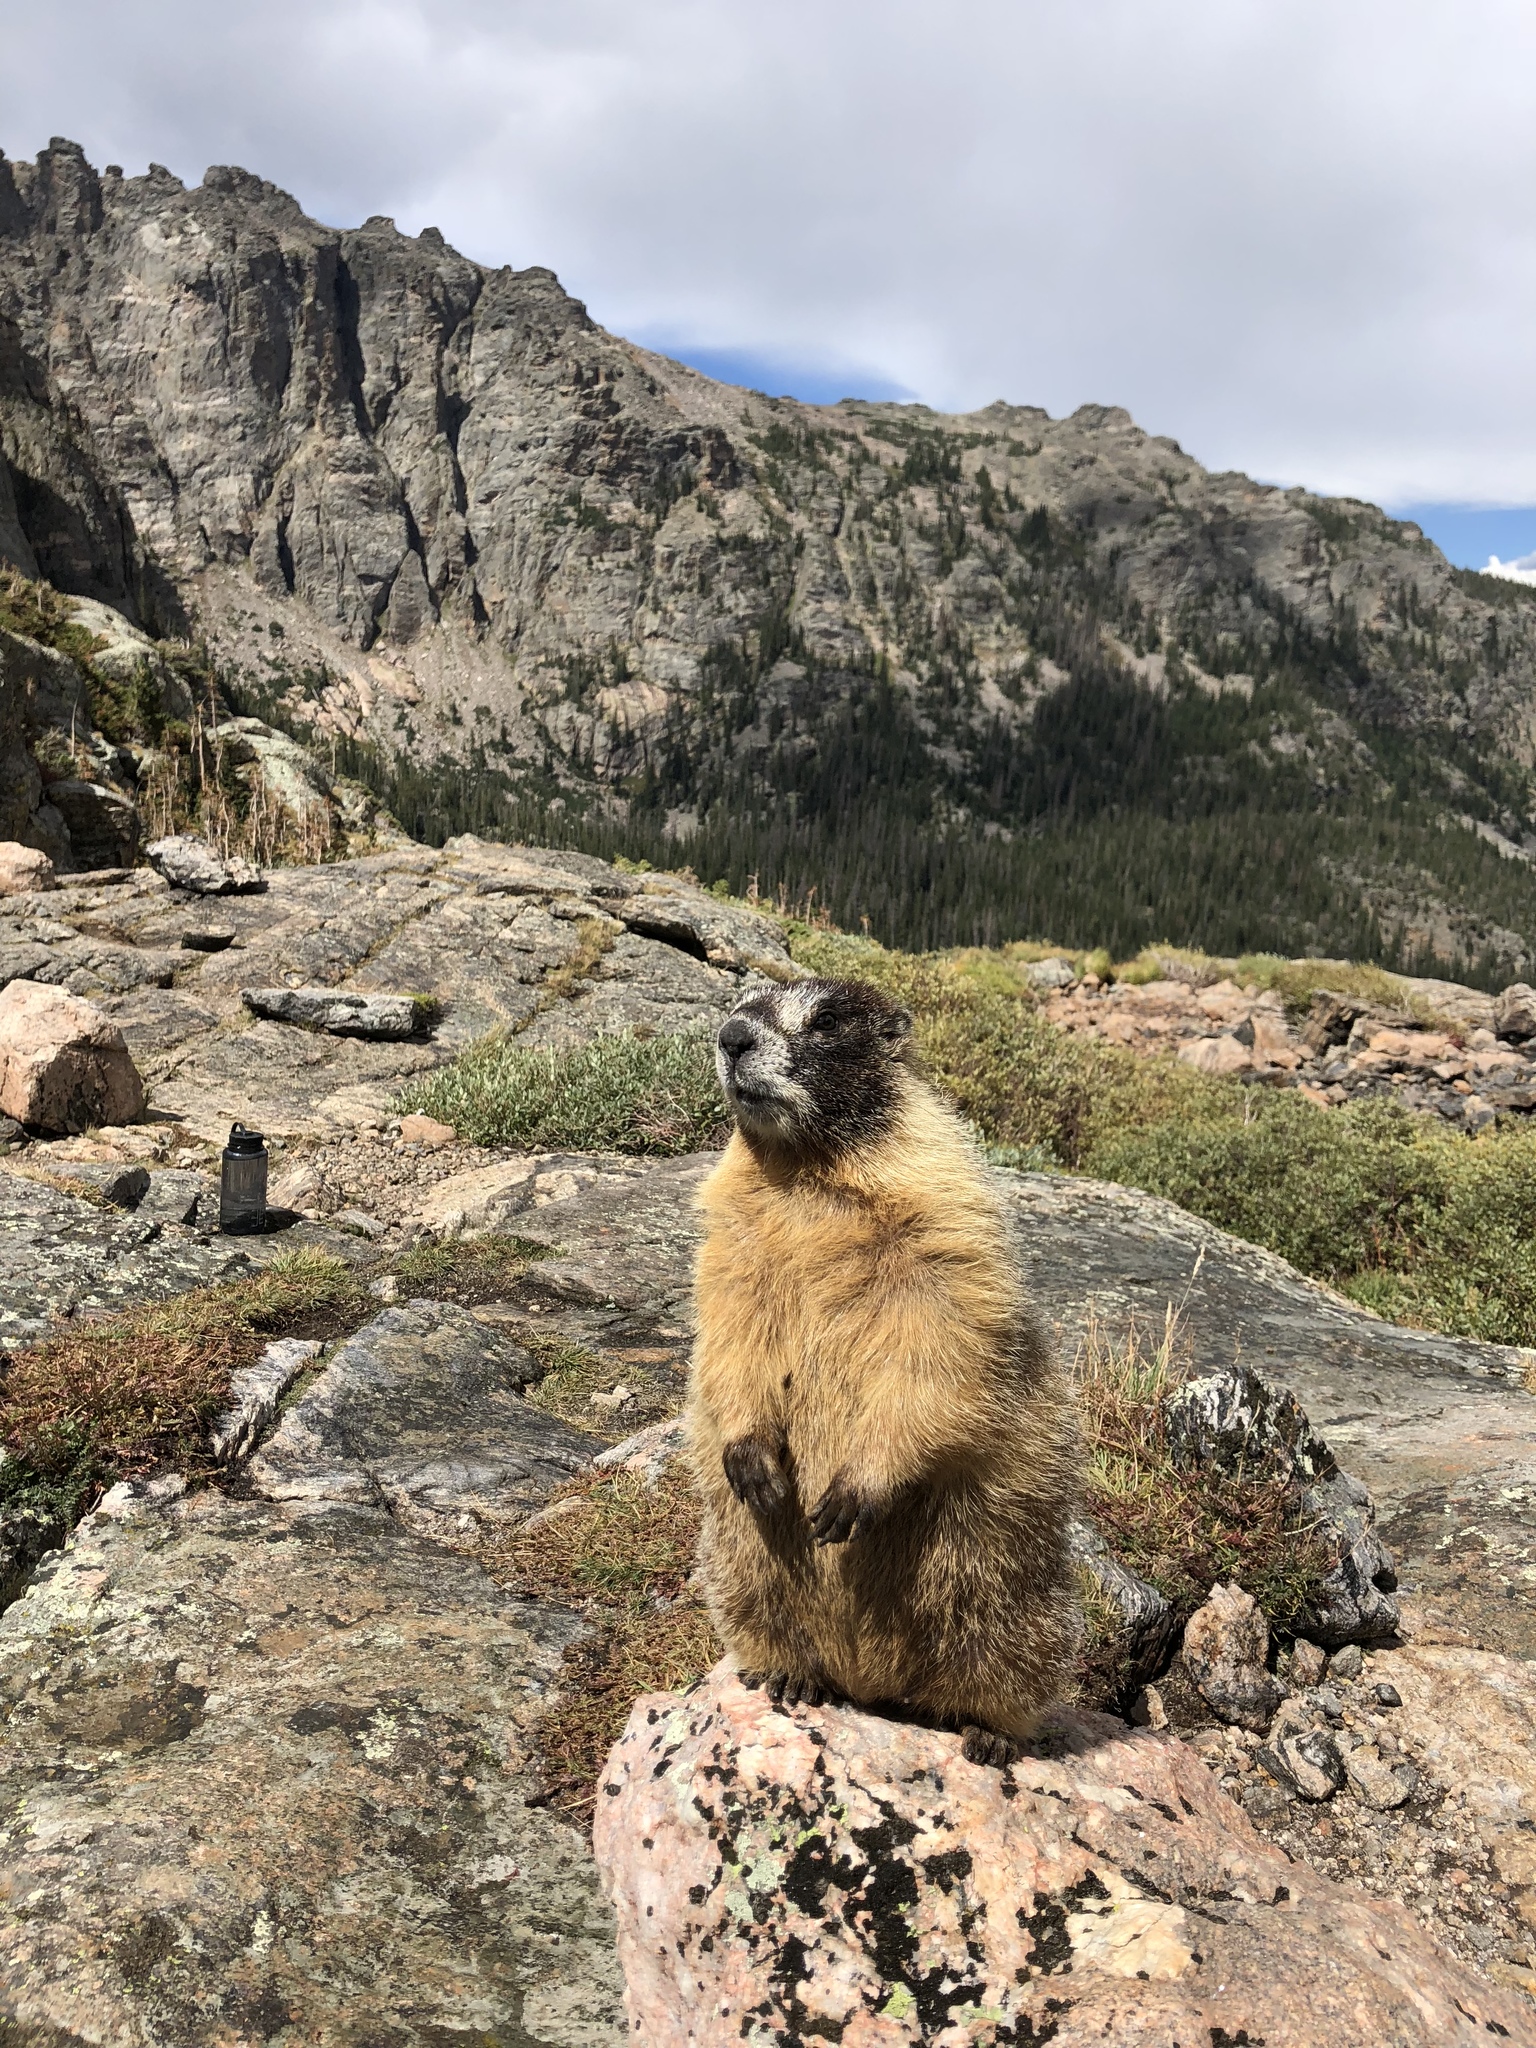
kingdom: Animalia
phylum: Chordata
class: Mammalia
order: Rodentia
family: Sciuridae
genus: Marmota
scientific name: Marmota flaviventris
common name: Yellow-bellied marmot
